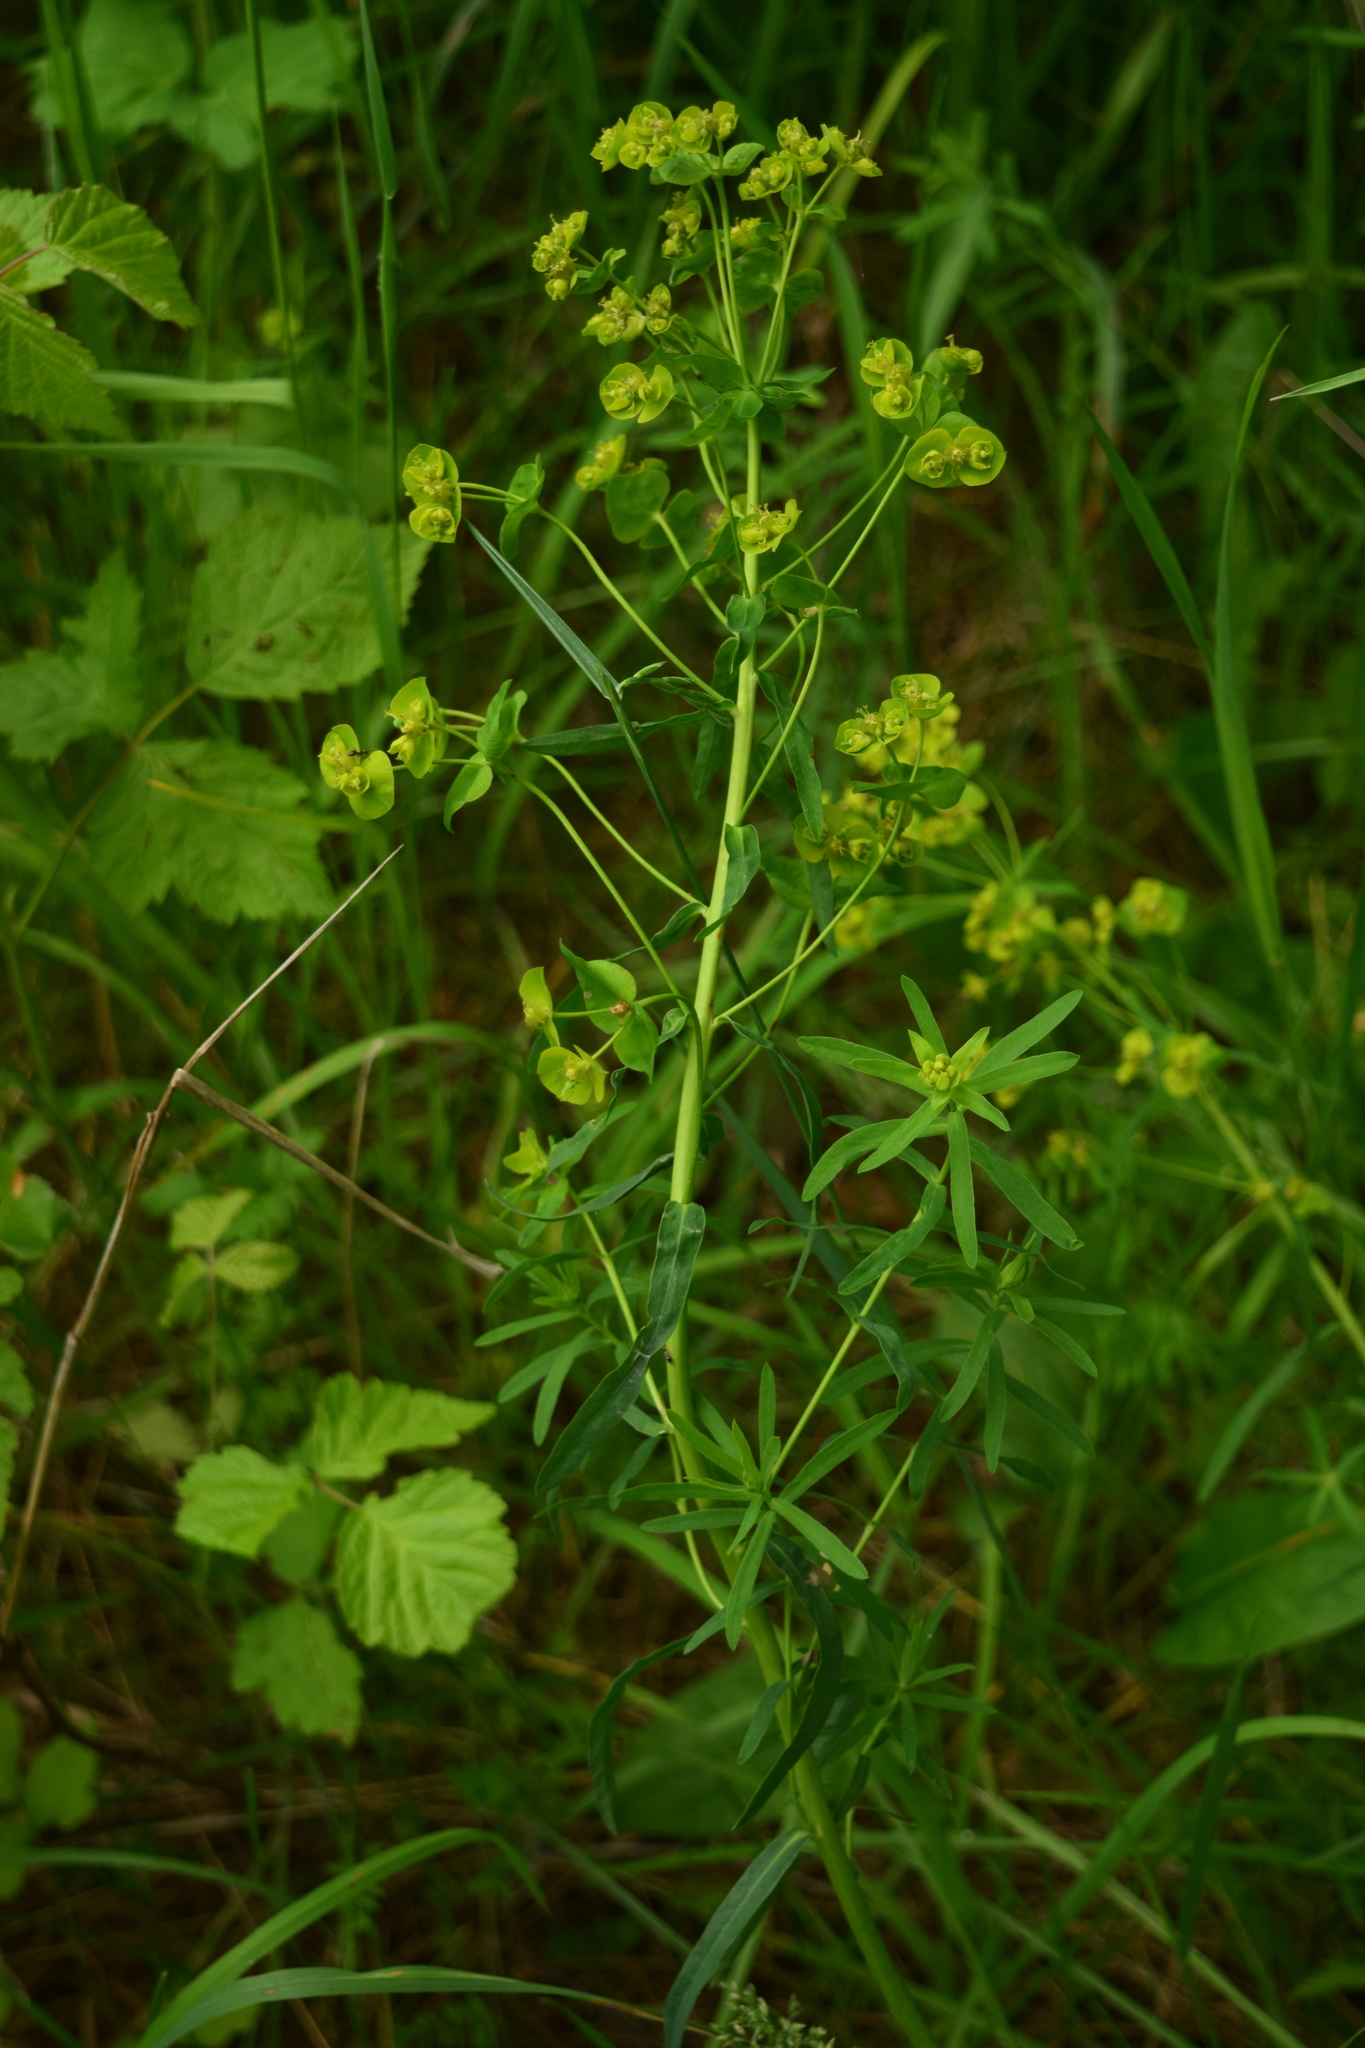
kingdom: Plantae
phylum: Tracheophyta
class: Magnoliopsida
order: Malpighiales
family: Euphorbiaceae
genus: Euphorbia
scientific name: Euphorbia virgata
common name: Leafy spurge
